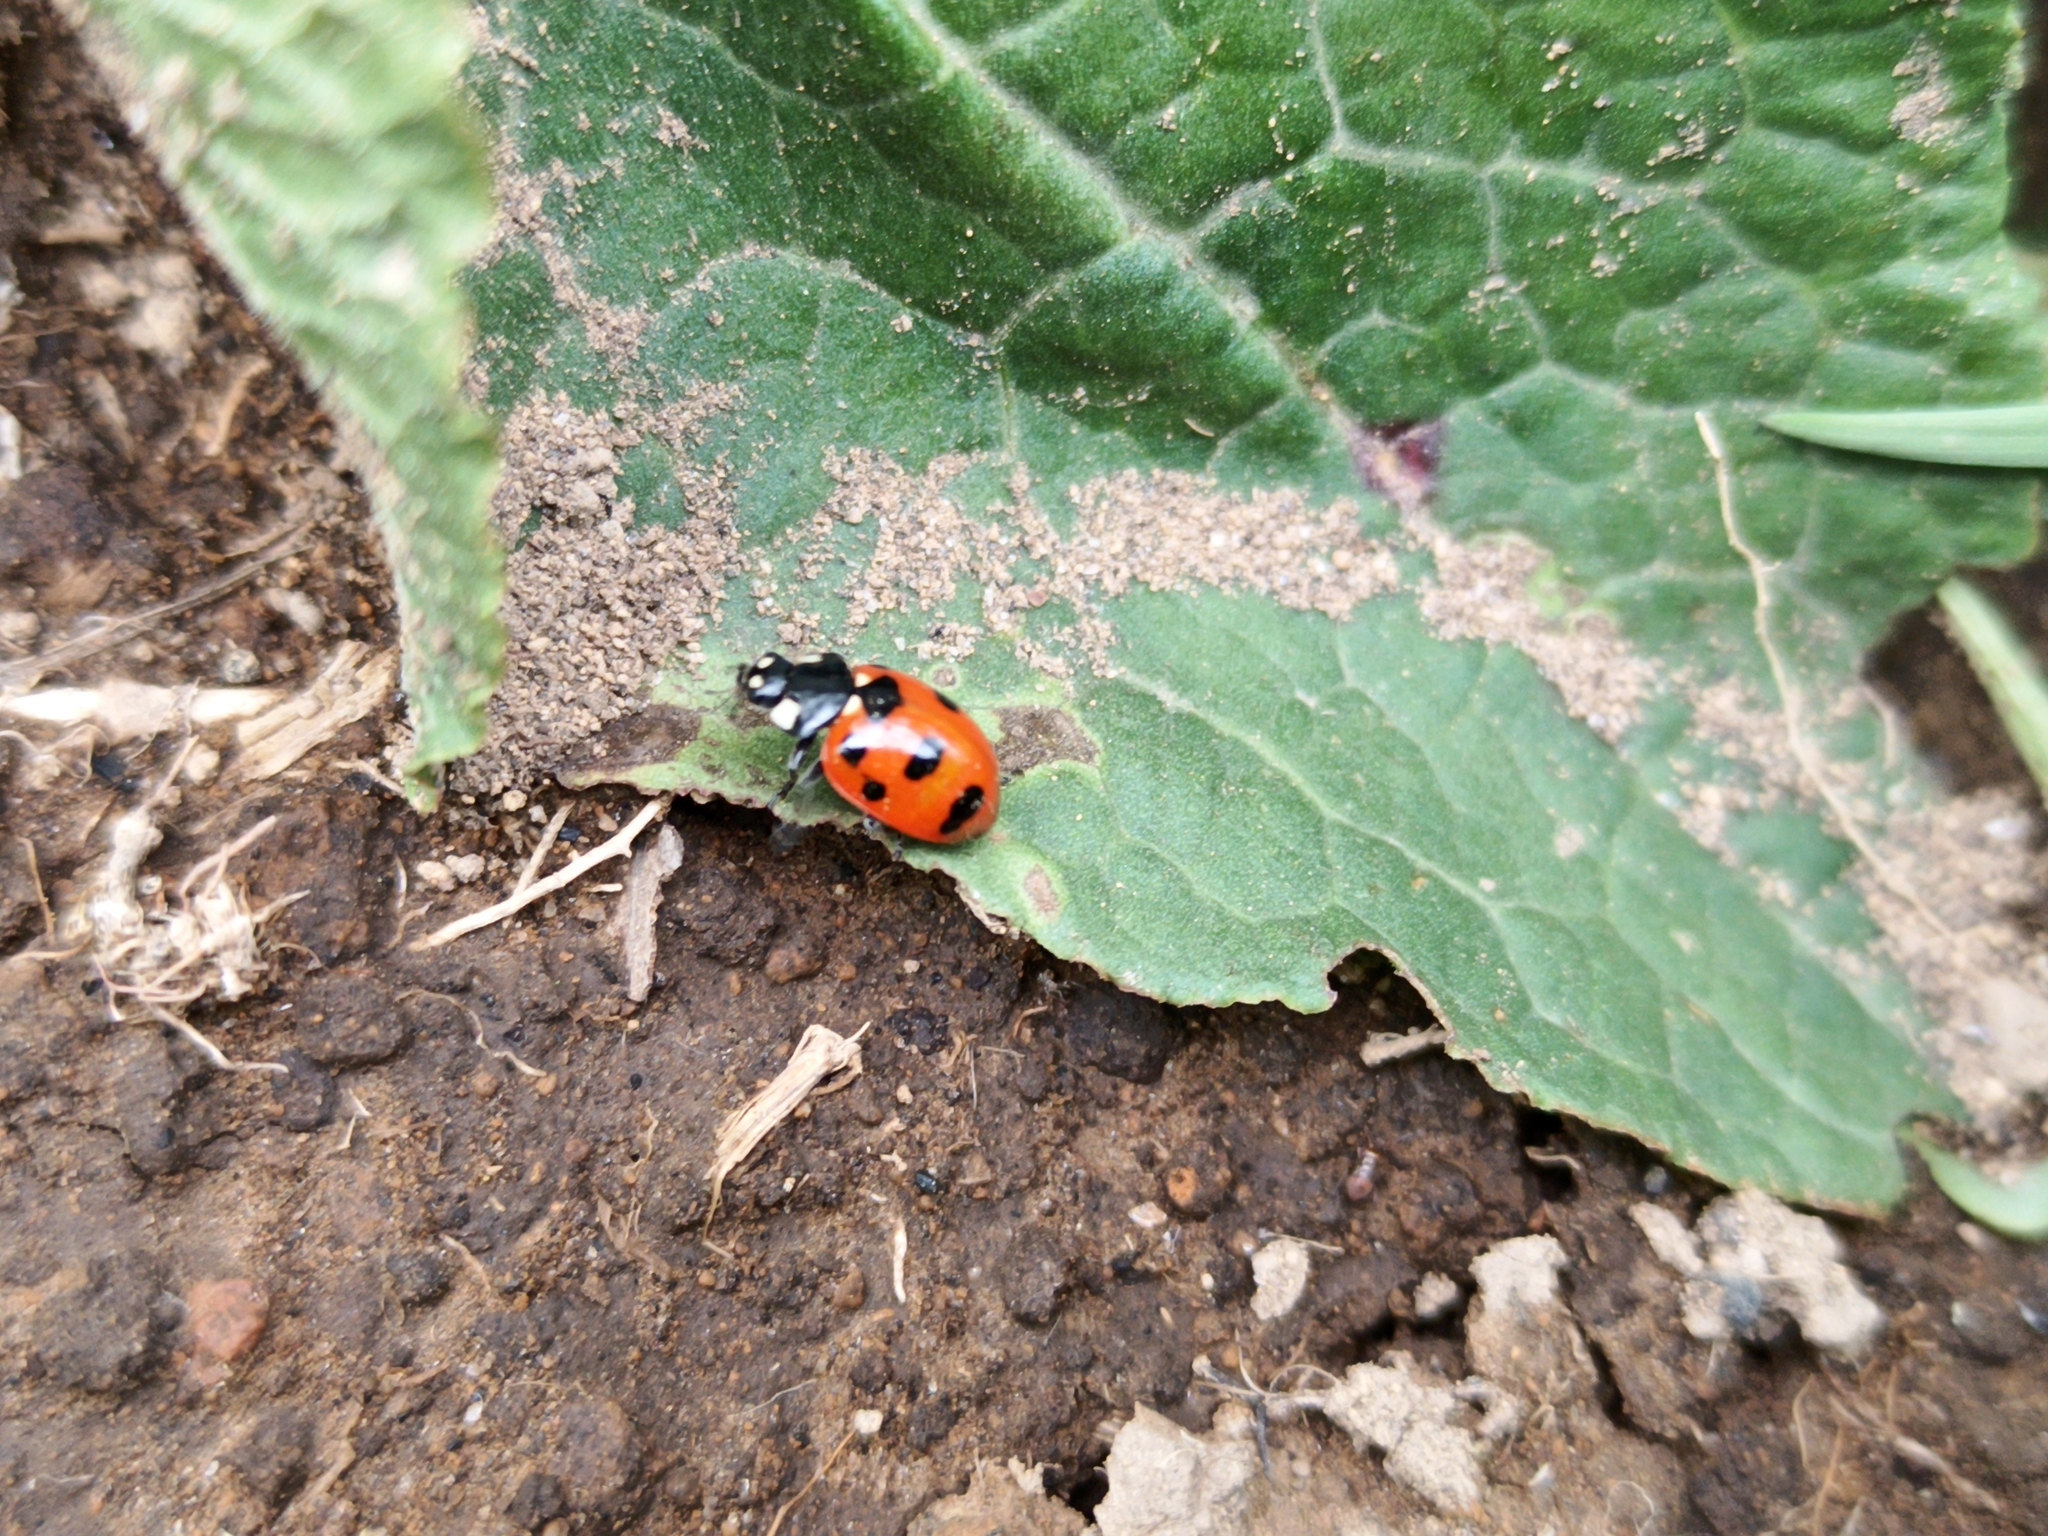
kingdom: Animalia
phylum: Arthropoda
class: Insecta
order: Coleoptera
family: Coccinellidae
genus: Coccinella
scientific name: Coccinella
